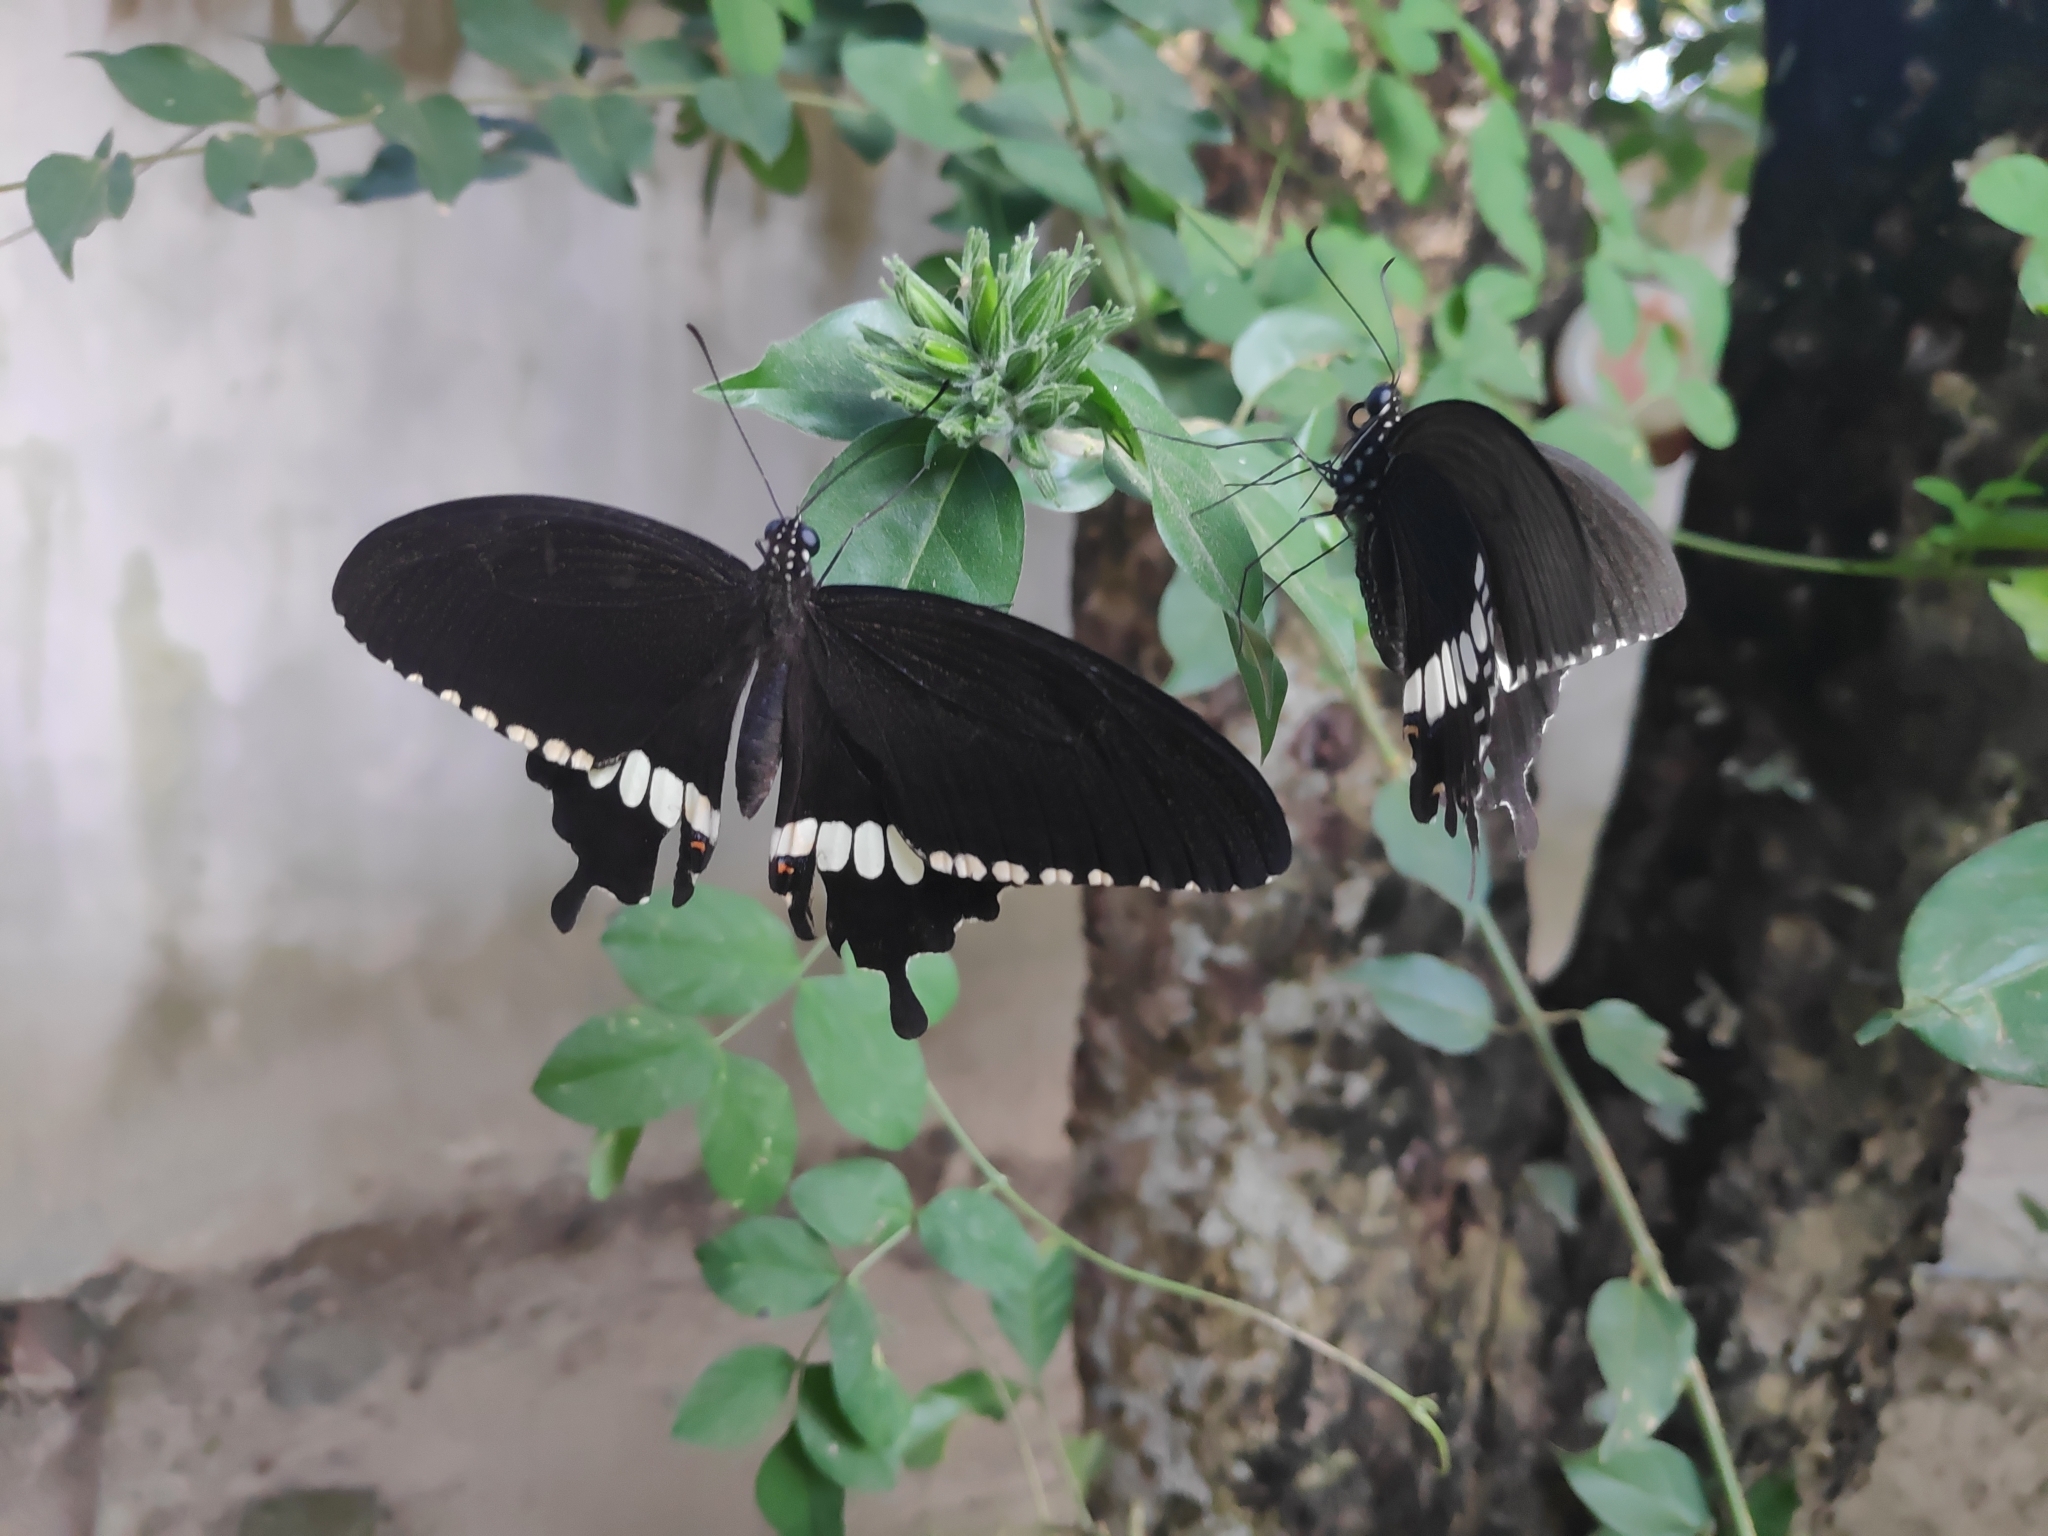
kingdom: Animalia
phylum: Arthropoda
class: Insecta
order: Lepidoptera
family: Papilionidae
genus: Papilio
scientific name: Papilio polytes
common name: Common mormon
